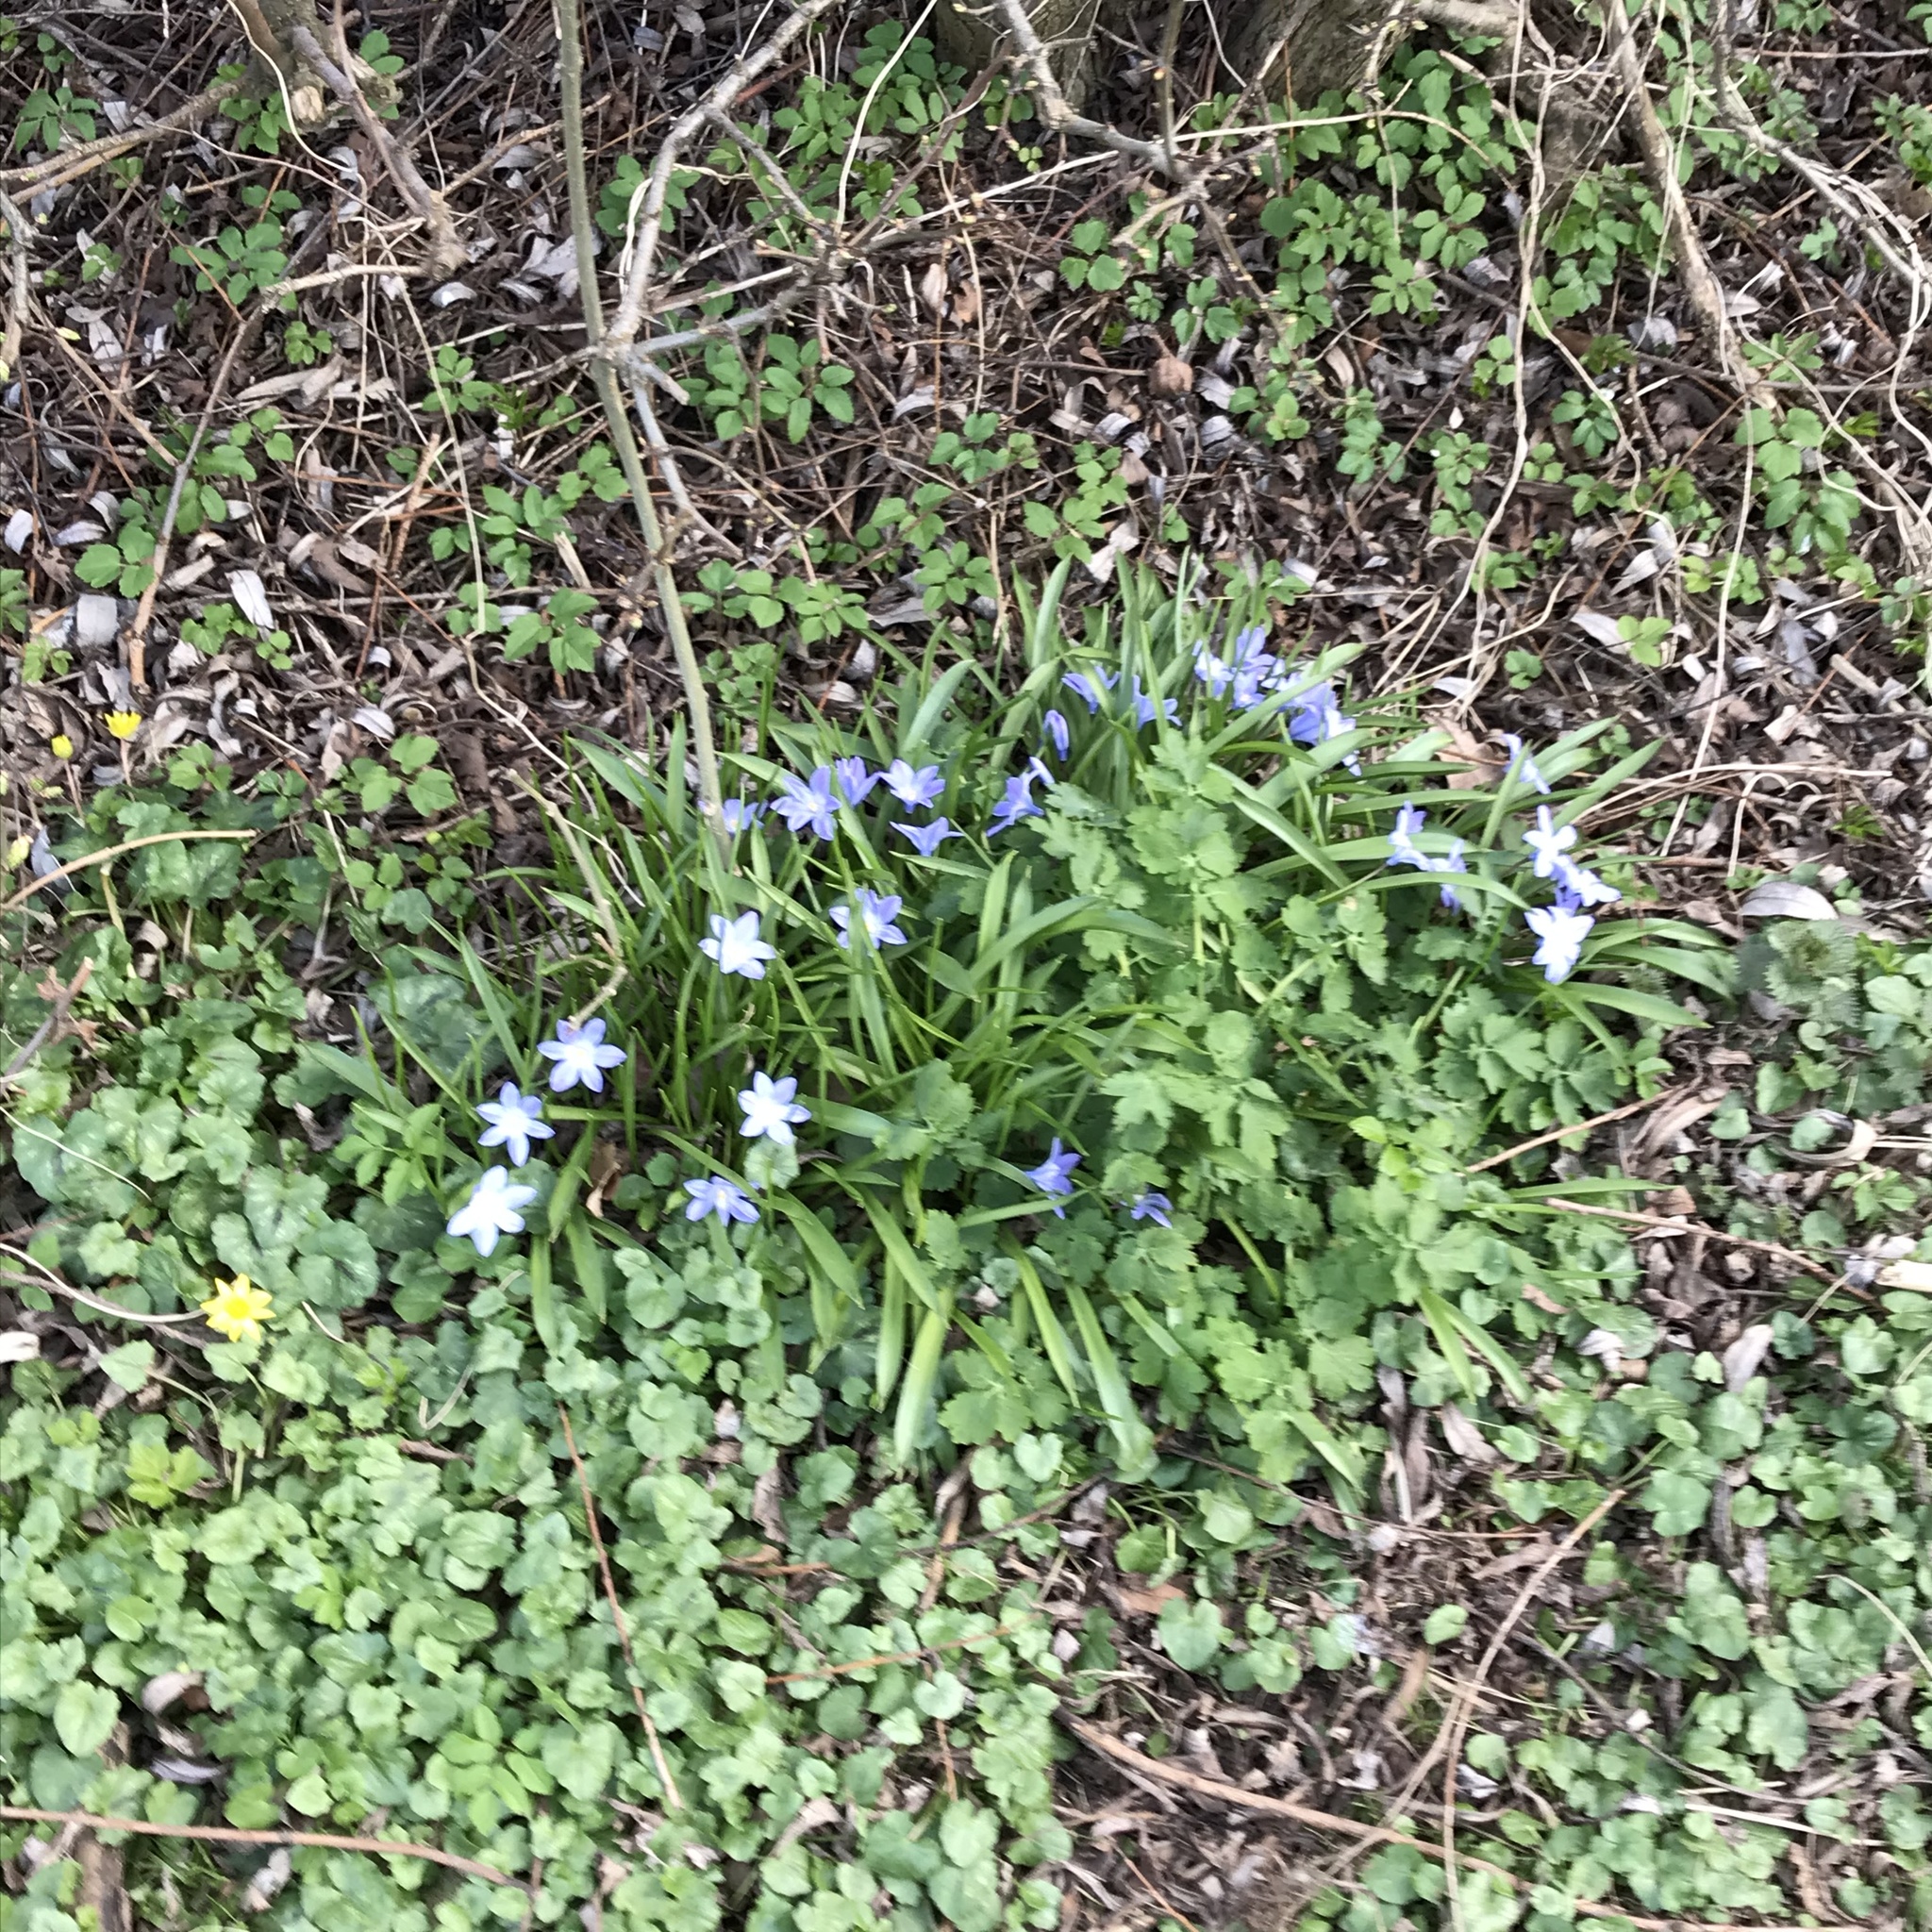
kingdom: Plantae
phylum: Tracheophyta
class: Liliopsida
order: Asparagales
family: Asparagaceae
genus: Scilla
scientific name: Scilla luciliae
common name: Boissier's glory-of-the-snow
